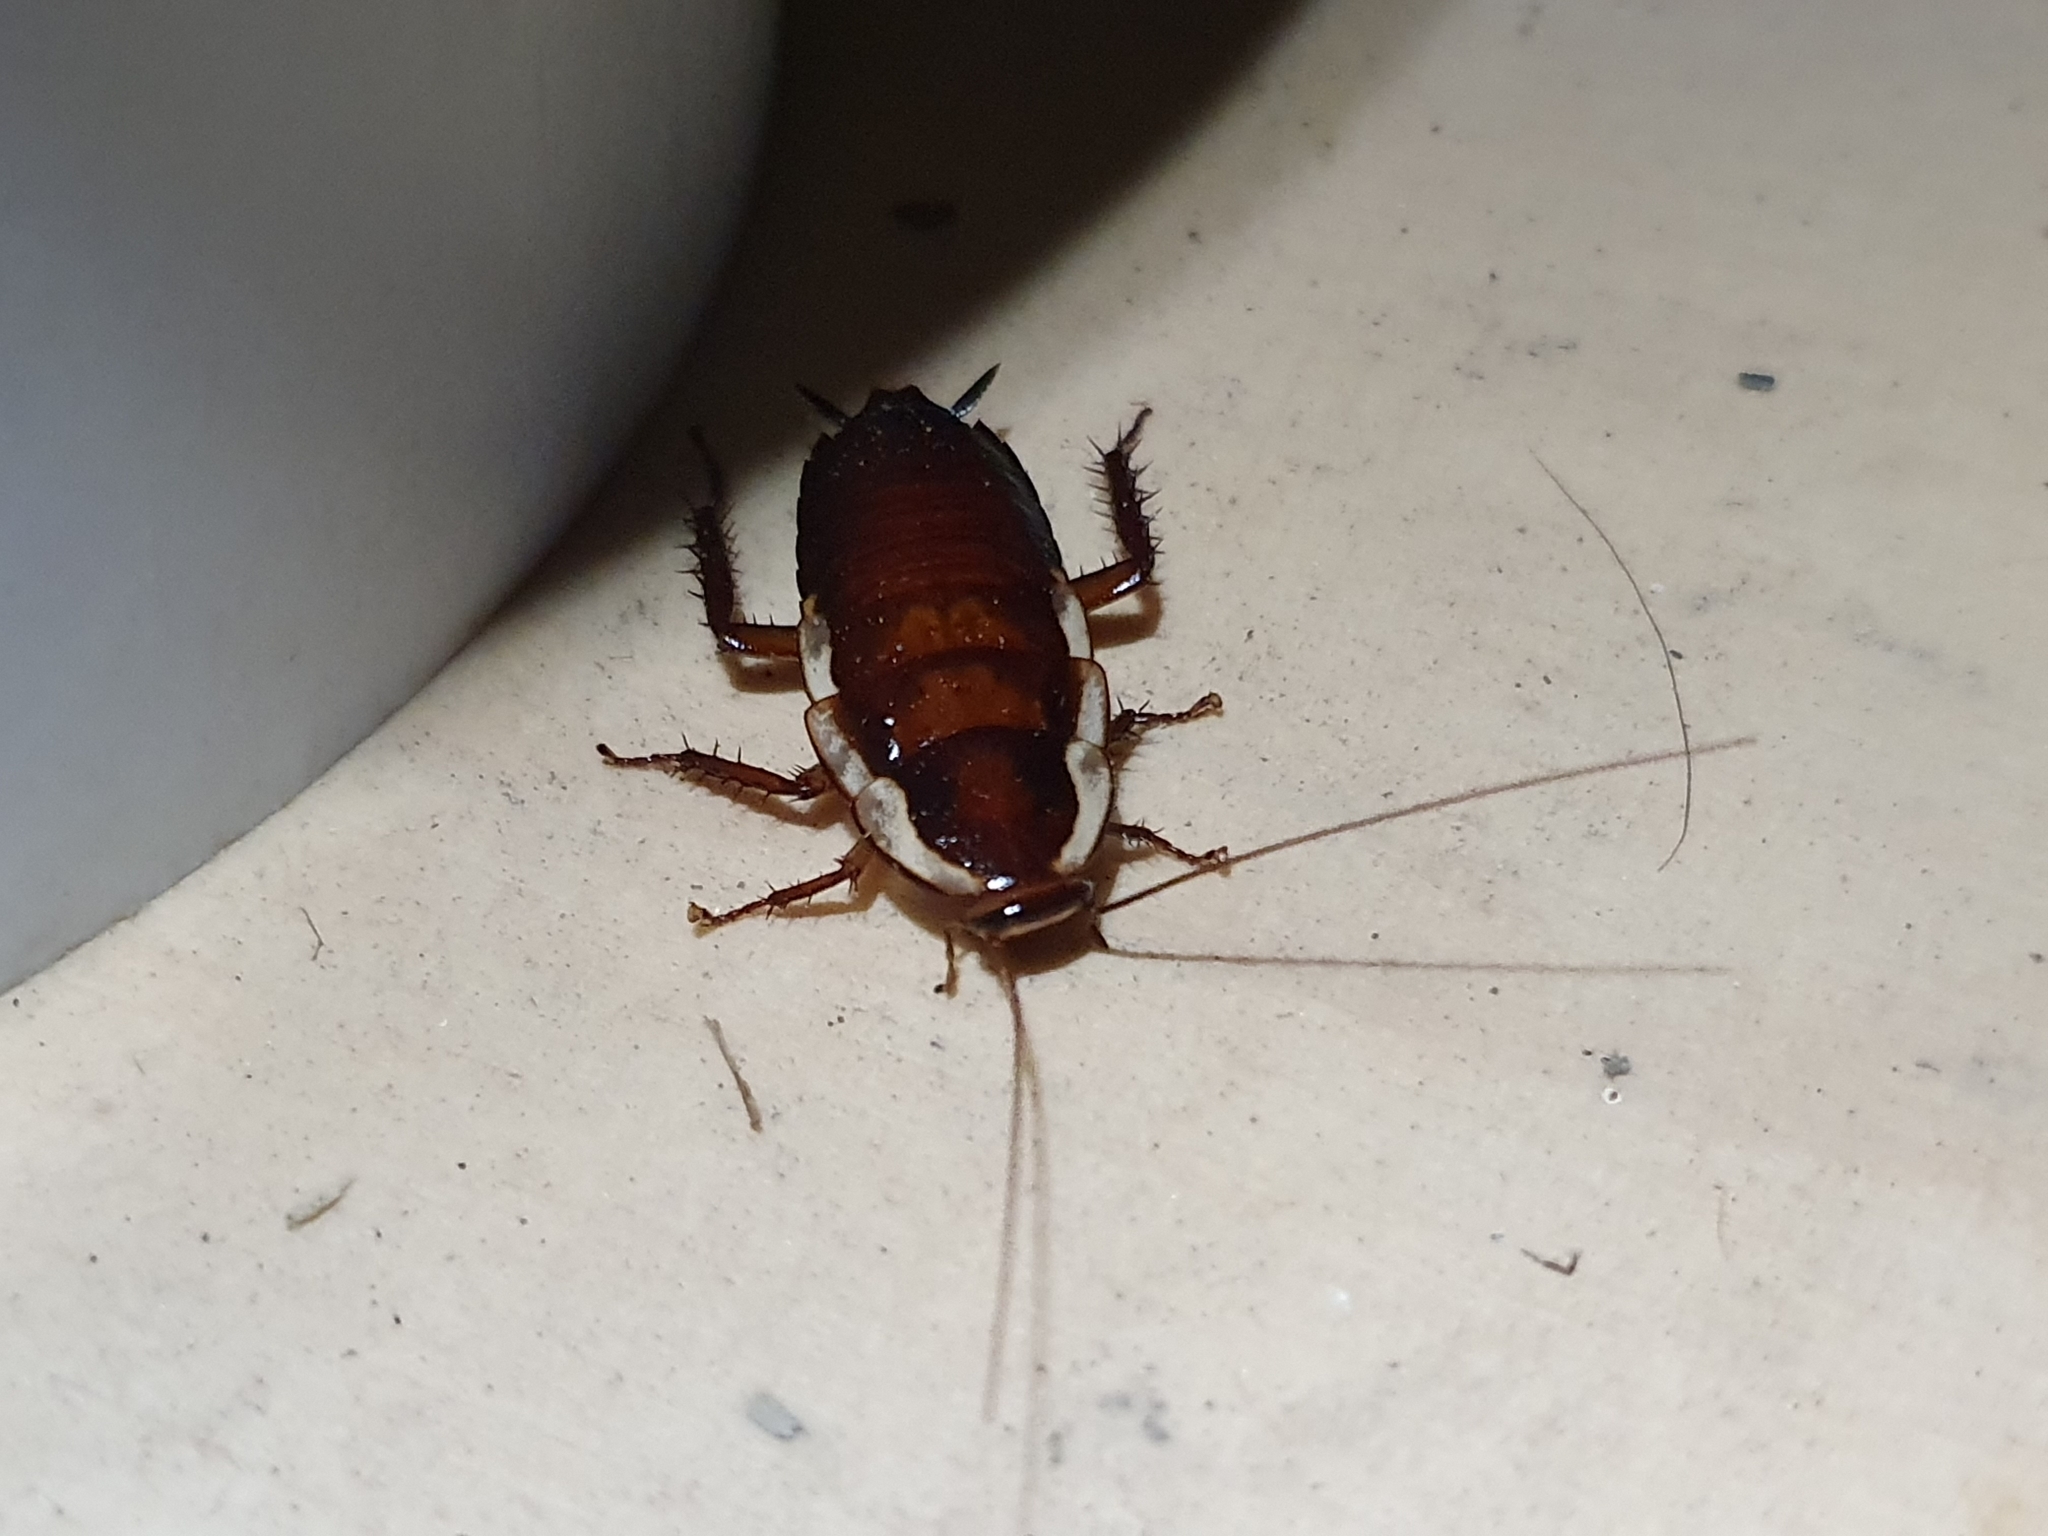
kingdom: Animalia
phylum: Arthropoda
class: Insecta
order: Blattodea
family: Blattidae
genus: Drymaplaneta
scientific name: Drymaplaneta semivitta
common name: Gisborne cockroach
